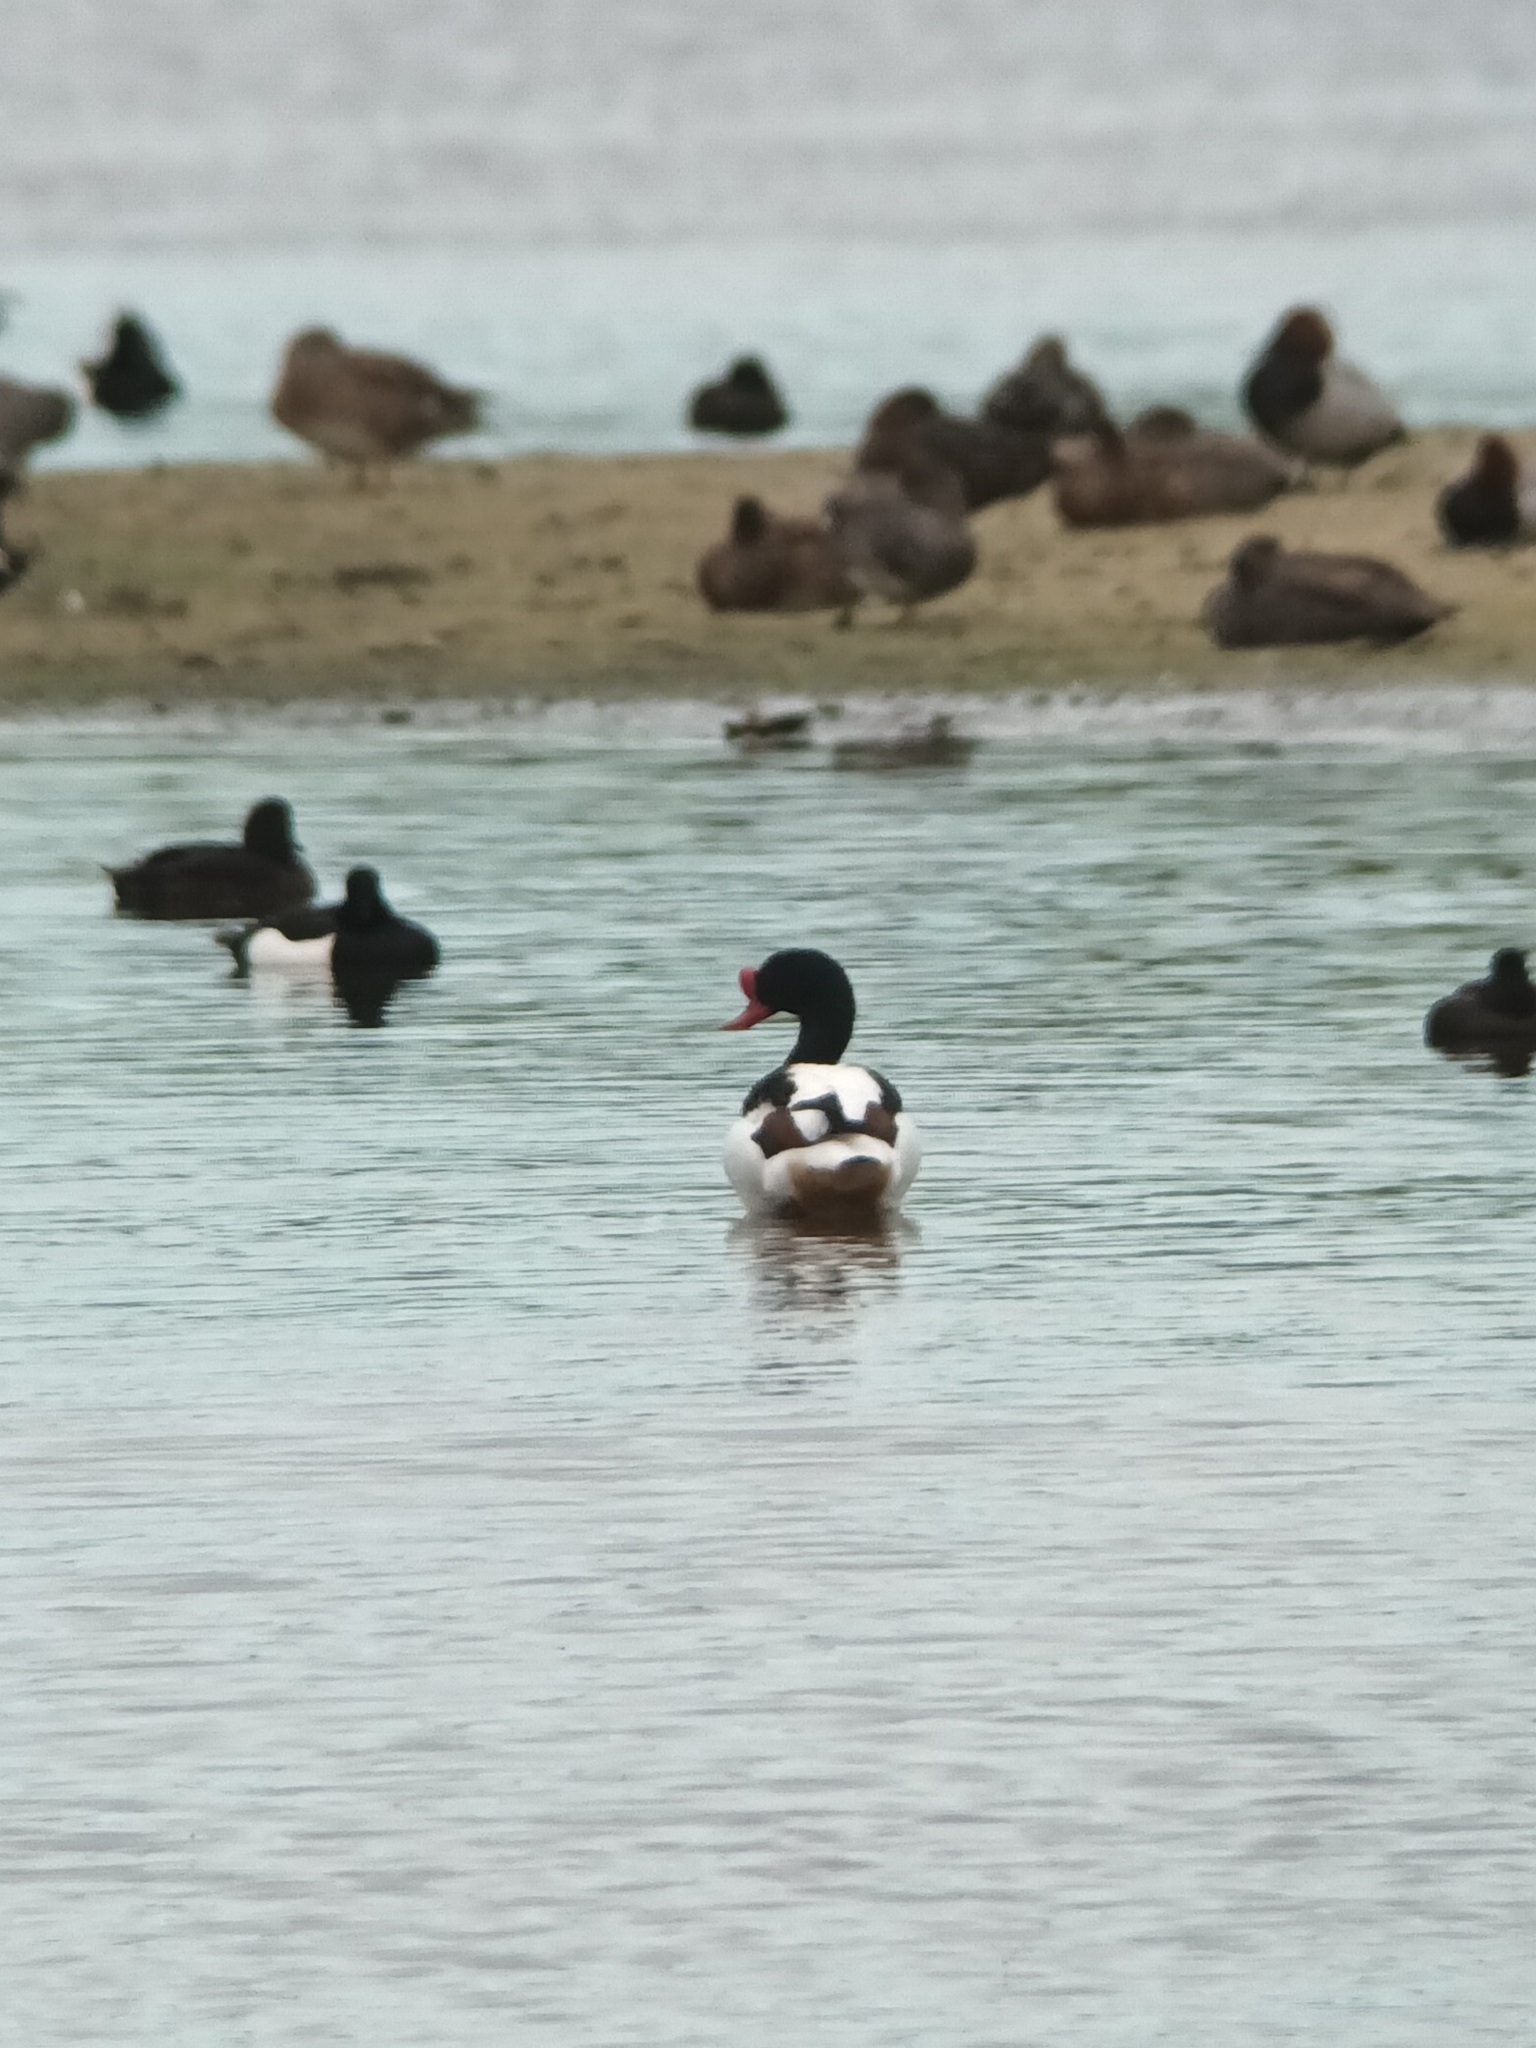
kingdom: Animalia
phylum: Chordata
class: Aves
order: Anseriformes
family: Anatidae
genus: Tadorna
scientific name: Tadorna tadorna
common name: Common shelduck
